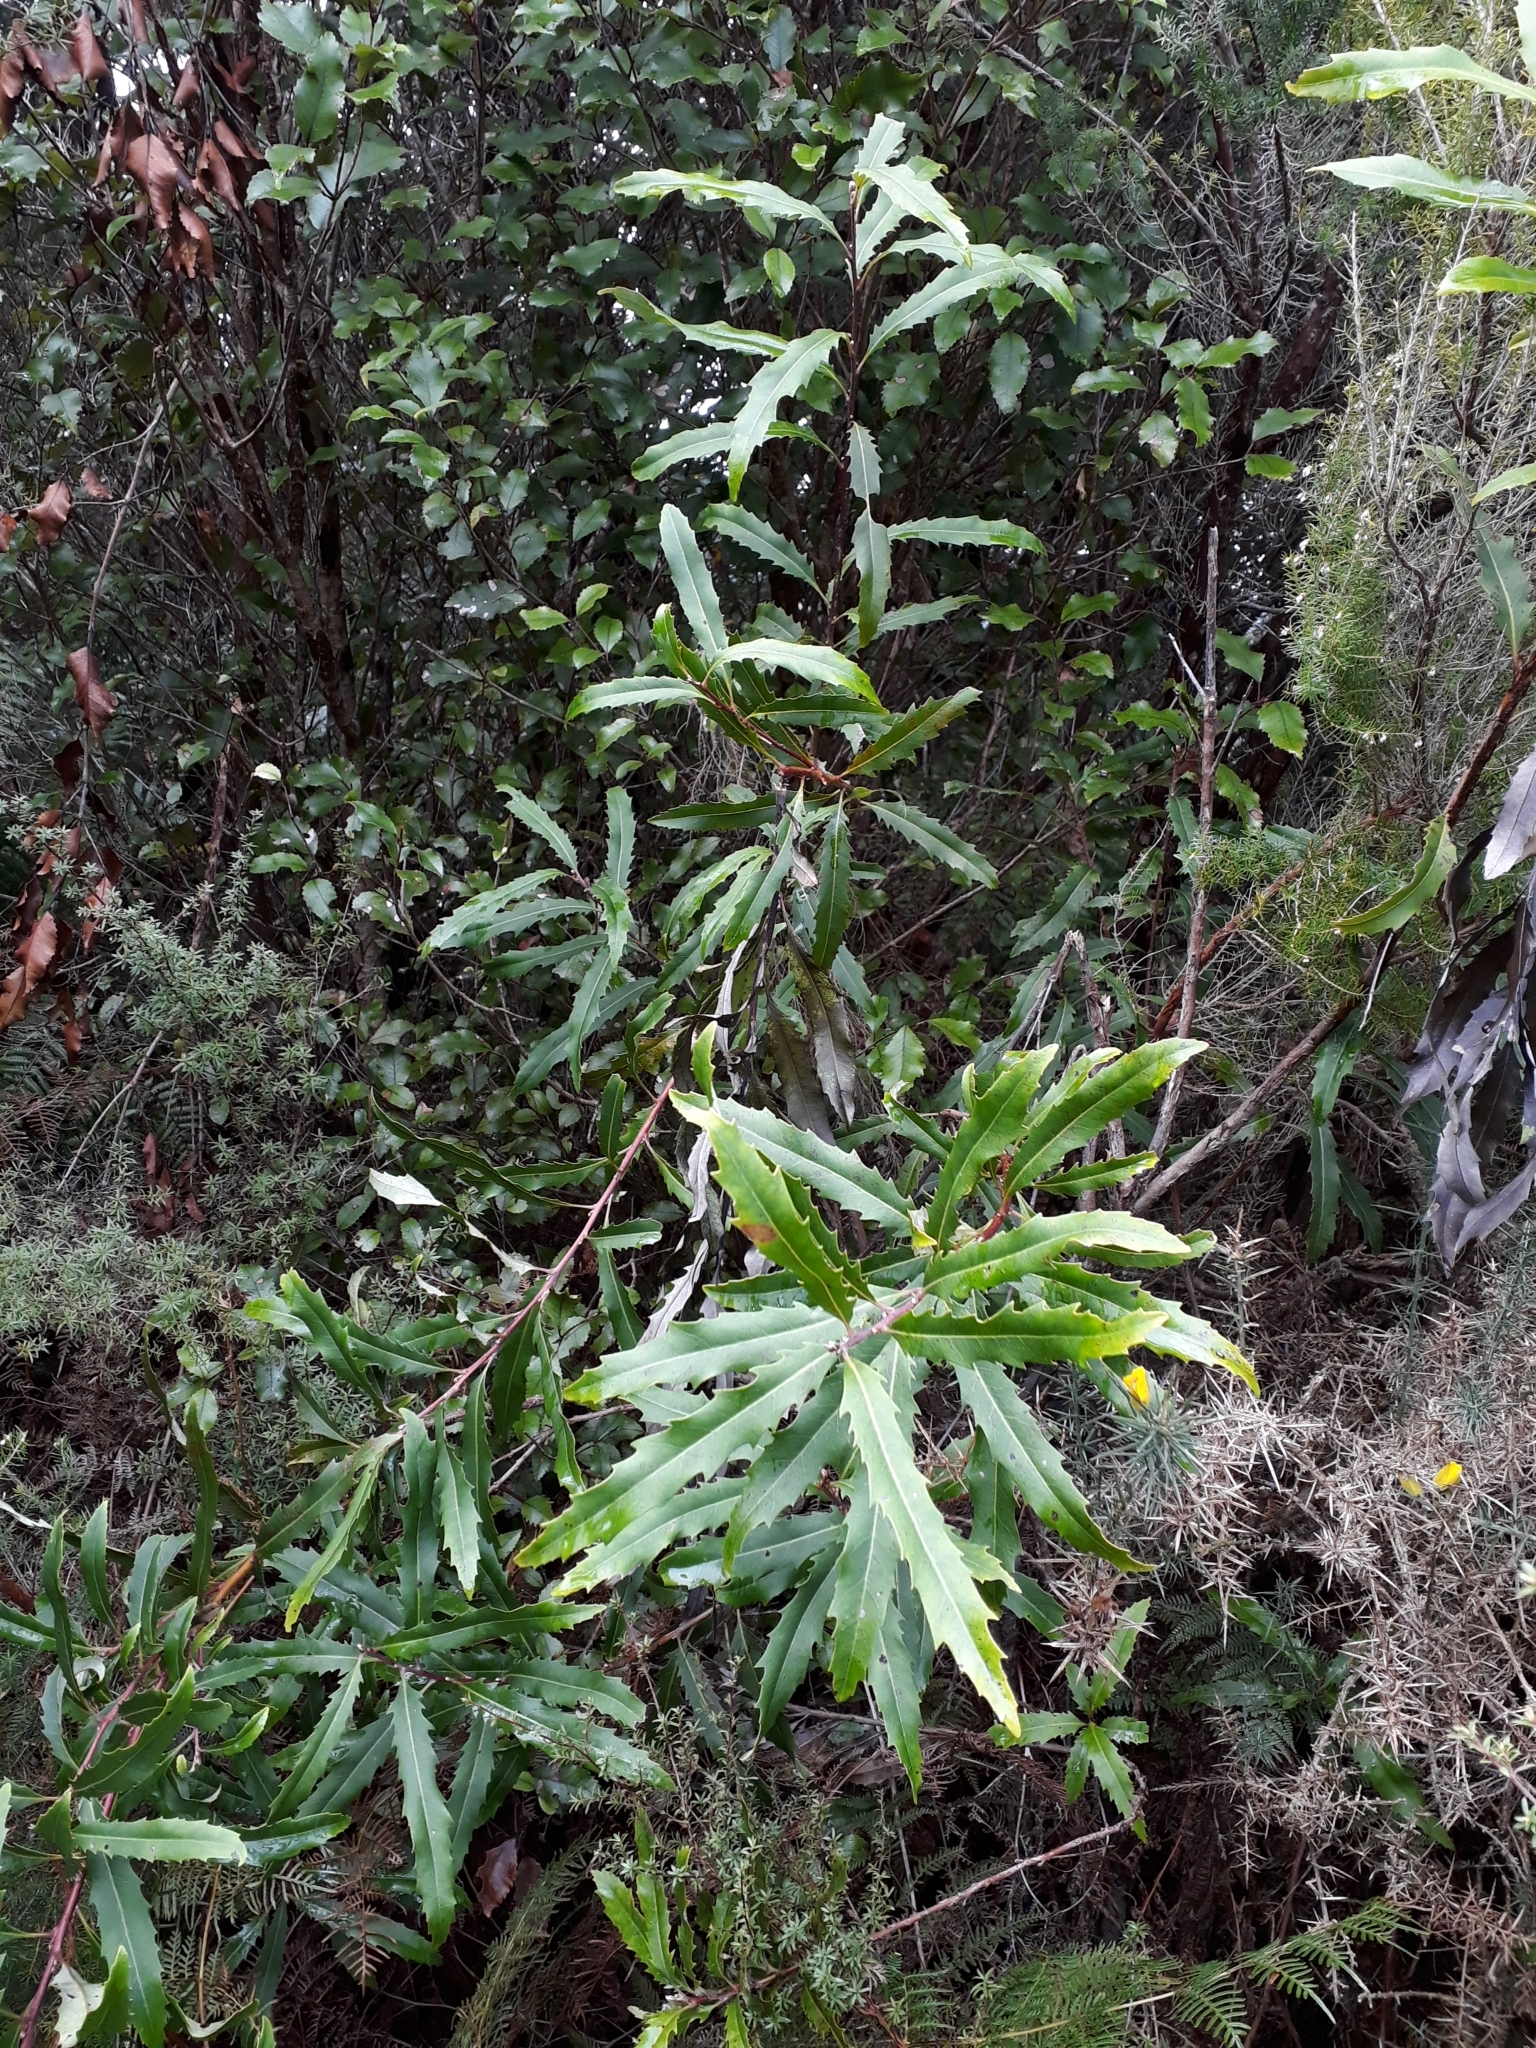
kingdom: Plantae
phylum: Tracheophyta
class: Magnoliopsida
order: Proteales
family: Proteaceae
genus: Lomatia
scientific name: Lomatia fraseri
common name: Forest lomatia
